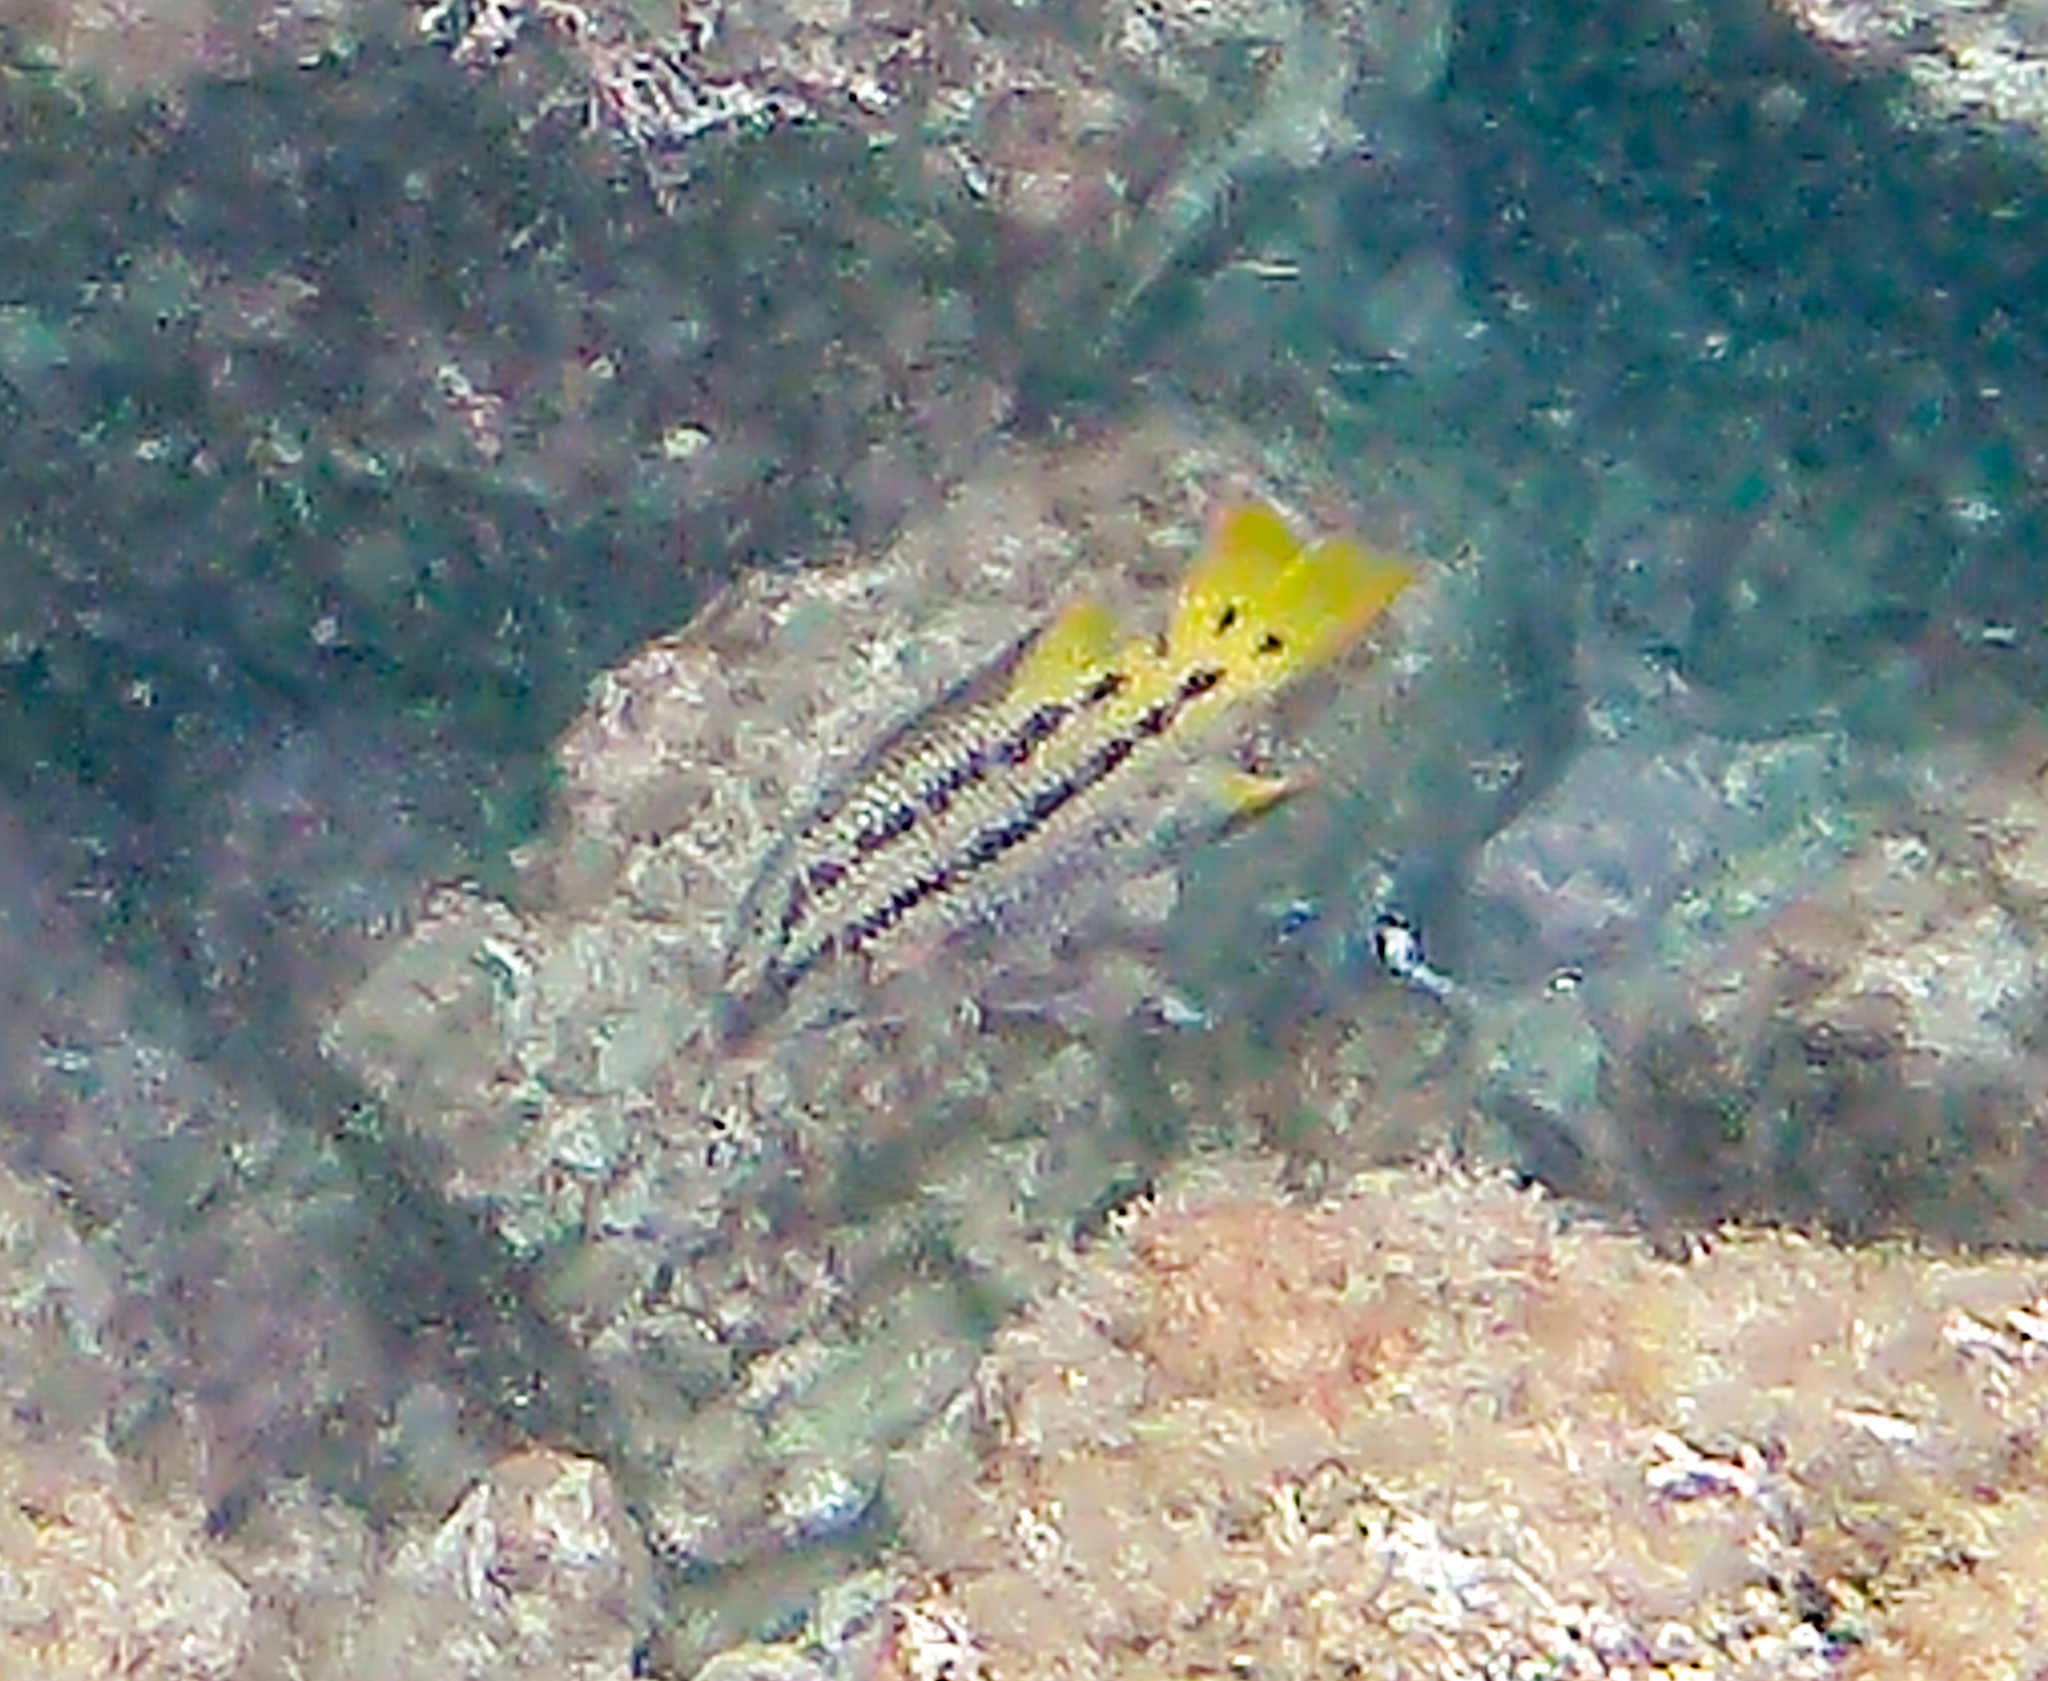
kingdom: Animalia
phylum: Chordata
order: Perciformes
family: Labridae
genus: Bodianus
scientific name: Bodianus diplotaenia
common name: Mexican hogfish
